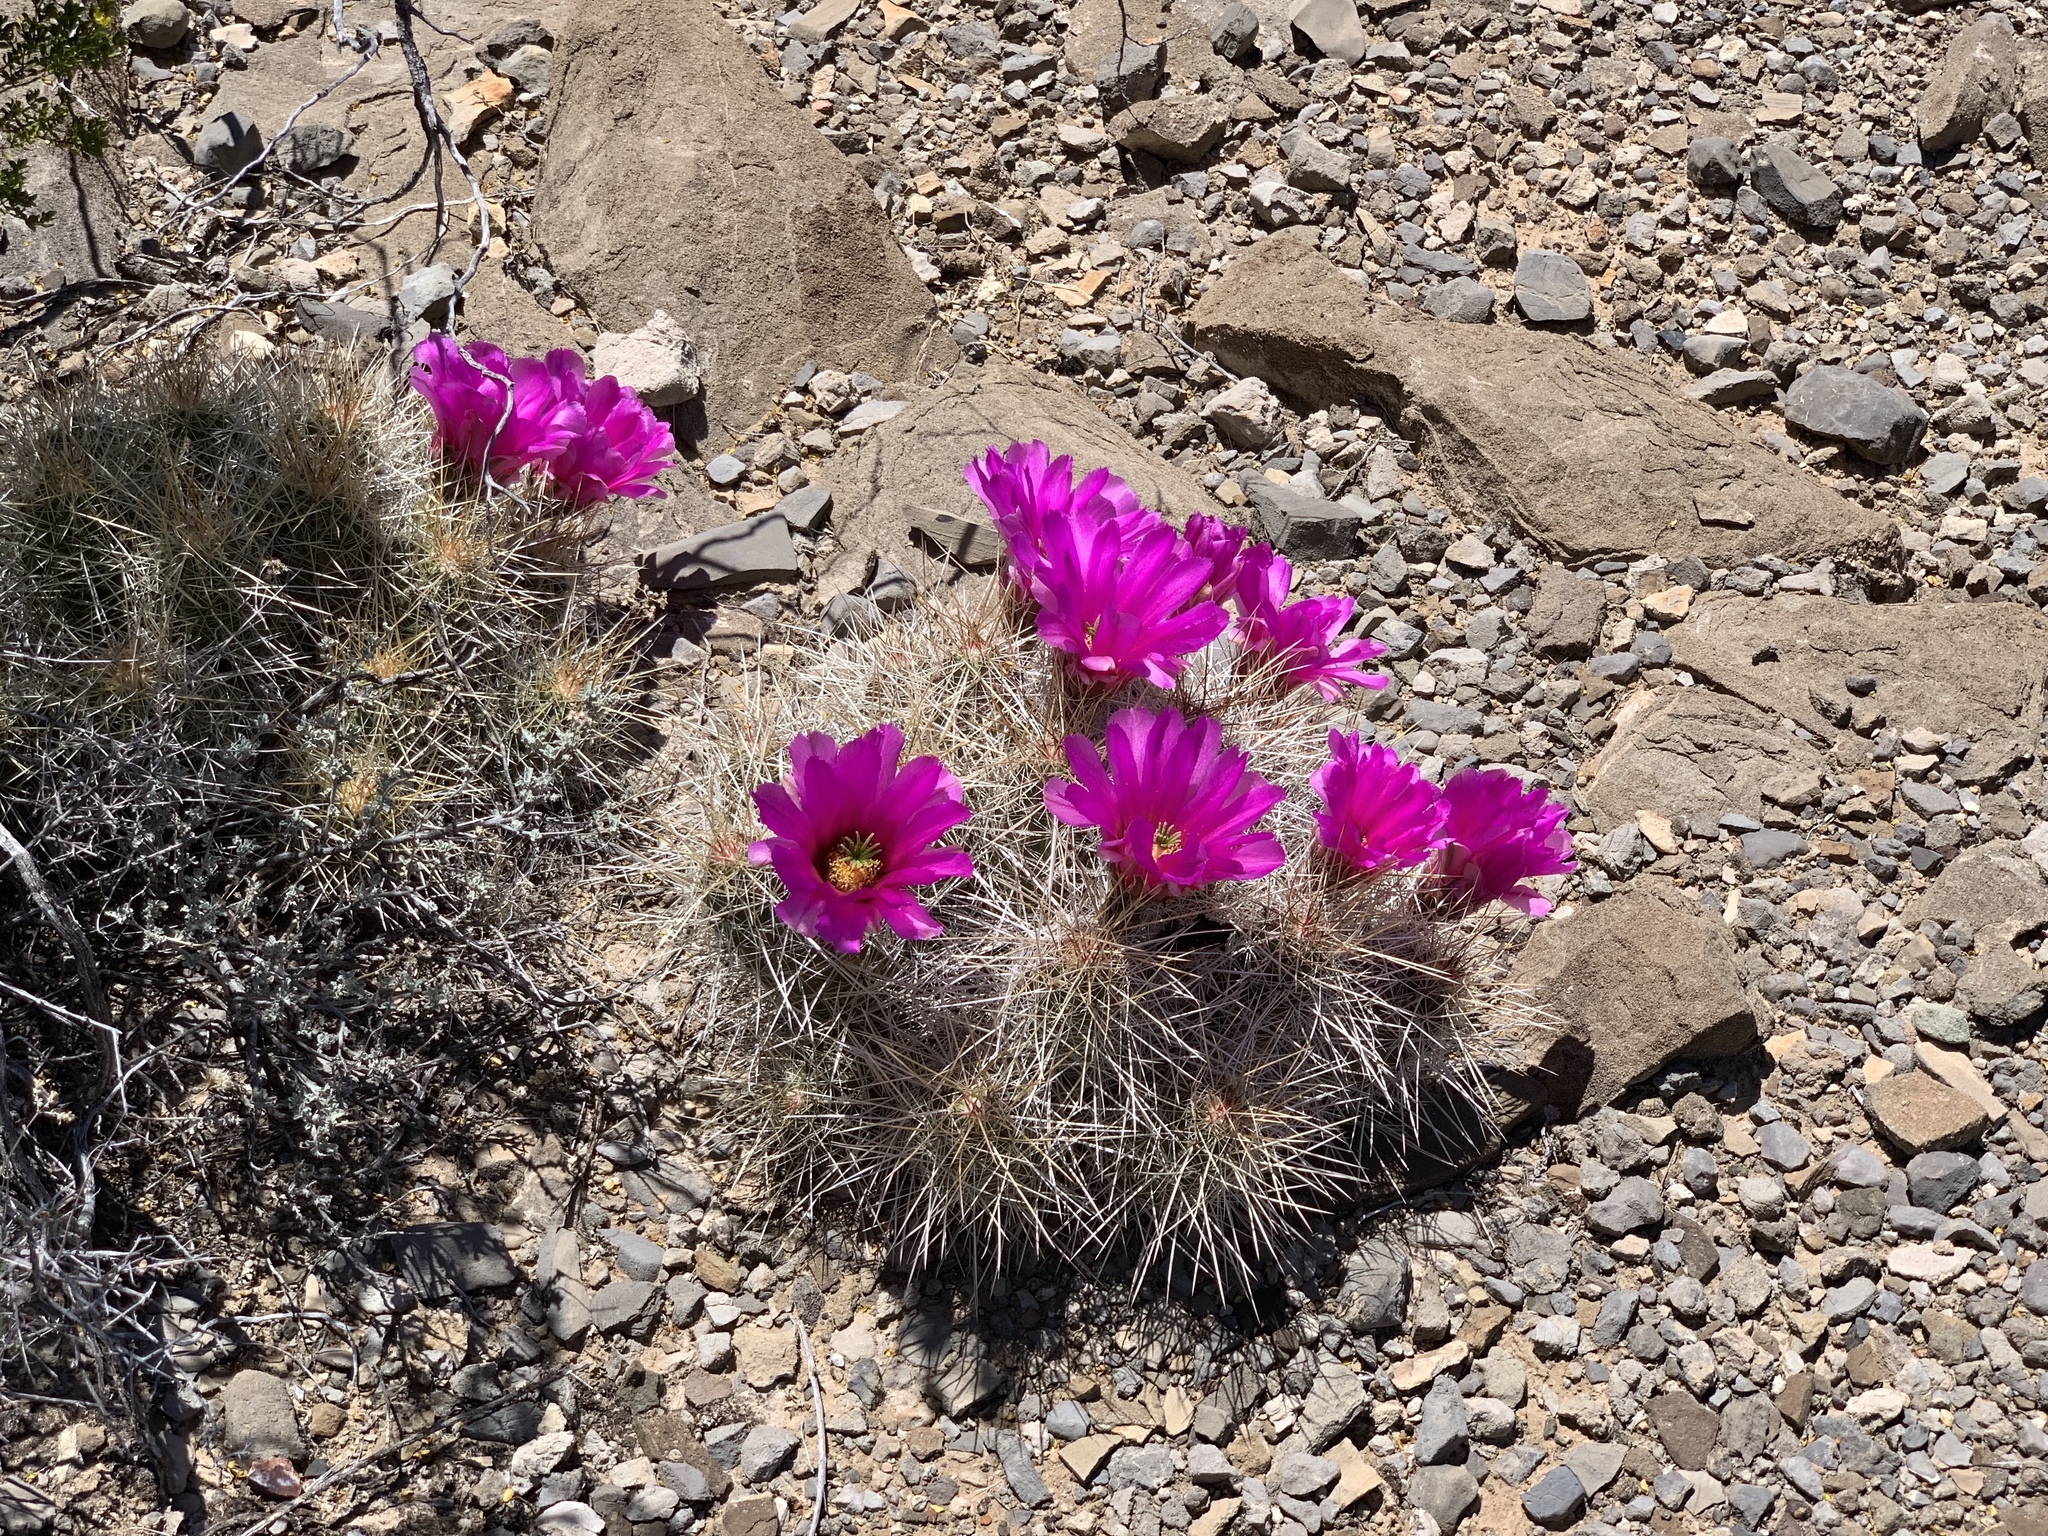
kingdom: Plantae
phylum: Tracheophyta
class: Magnoliopsida
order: Caryophyllales
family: Cactaceae
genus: Echinocereus
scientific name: Echinocereus stramineus
